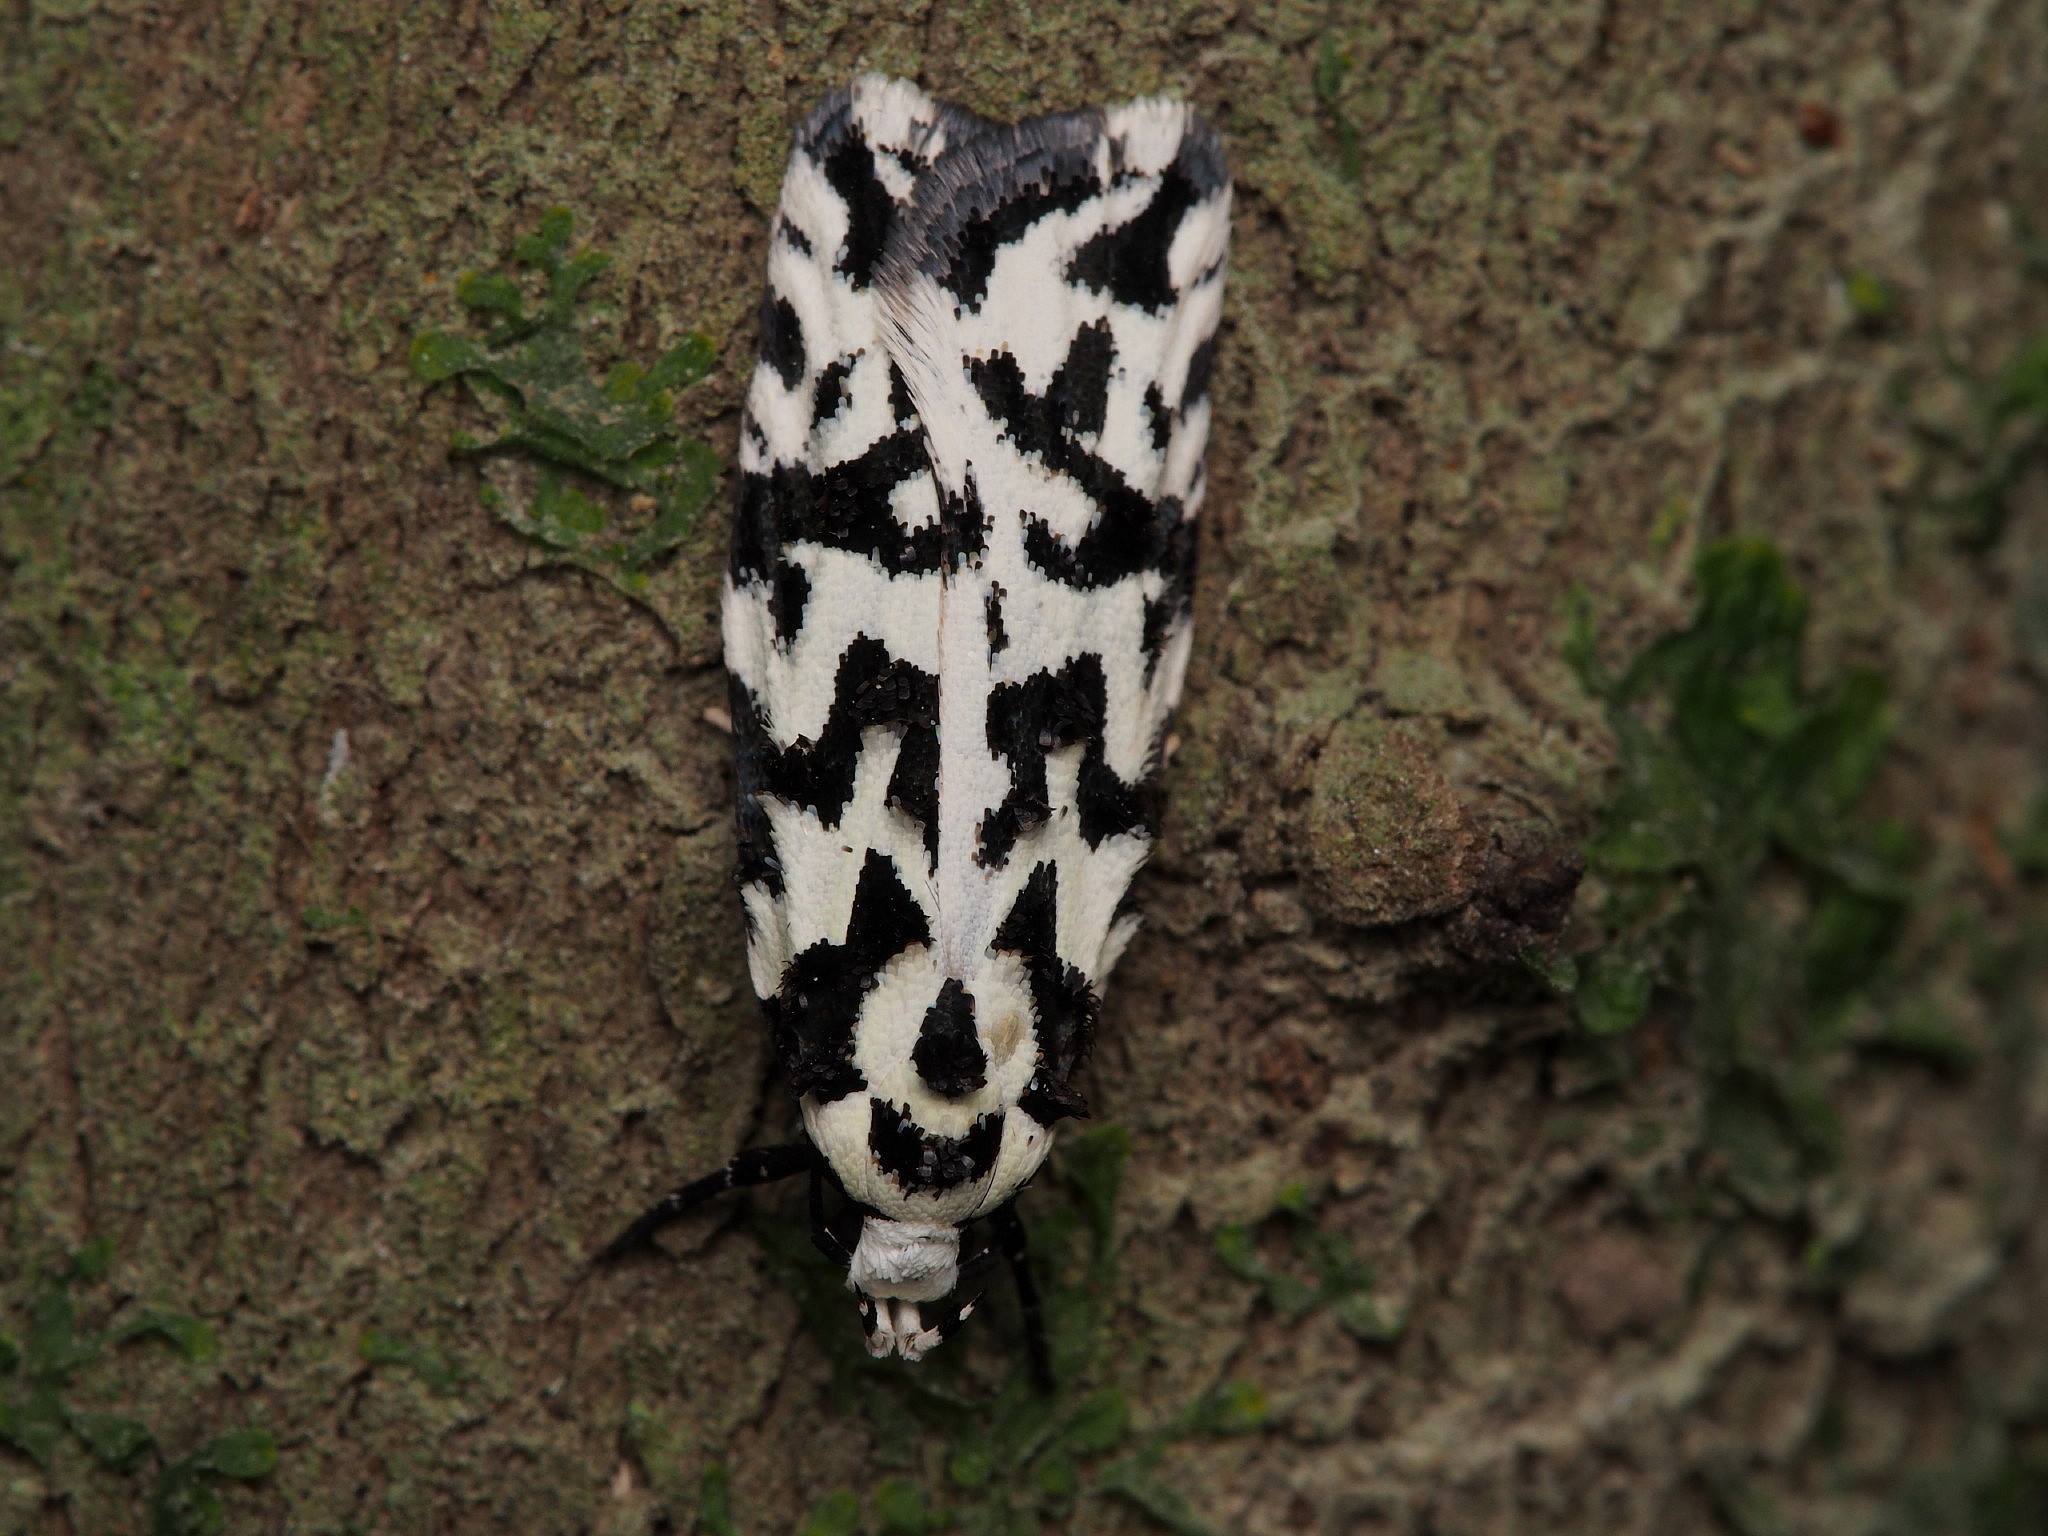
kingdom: Animalia
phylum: Arthropoda
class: Insecta
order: Lepidoptera
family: Oecophoridae
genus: Izatha
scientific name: Izatha
